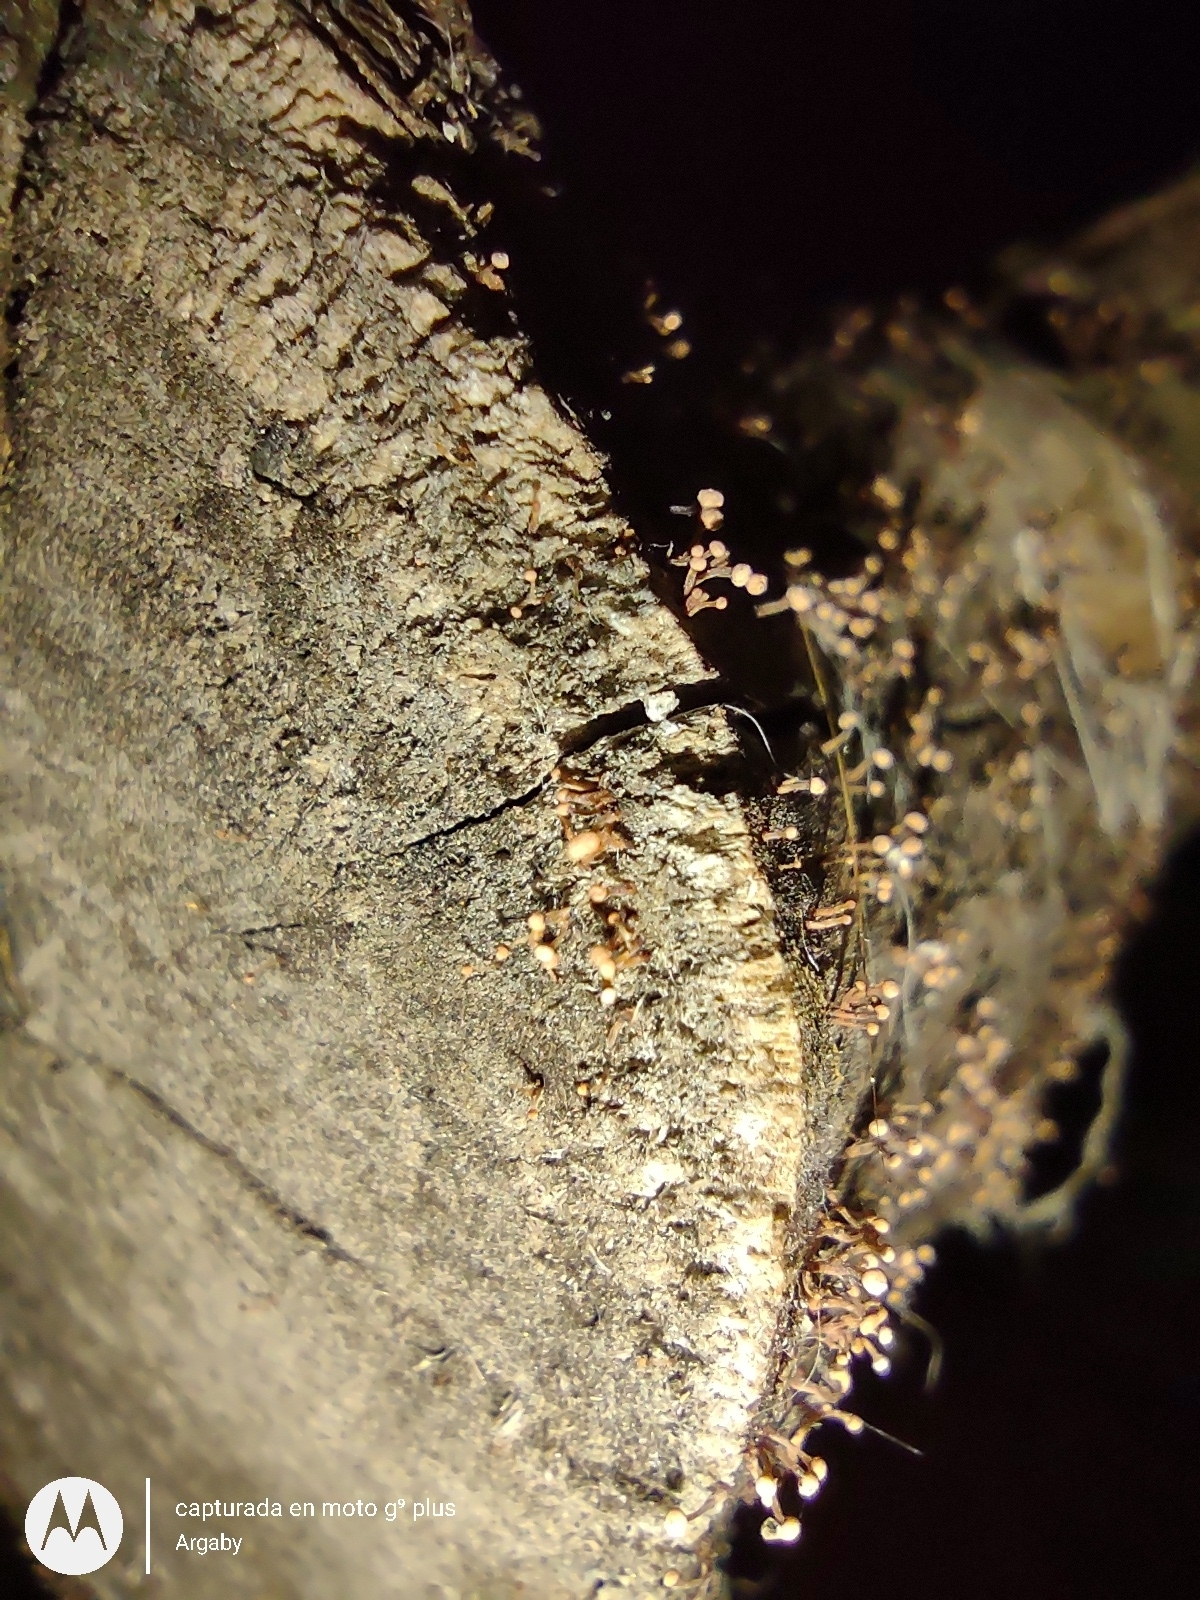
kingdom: Fungi
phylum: Ascomycota
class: Sordariomycetes
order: Hypocreales
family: Nectriaceae
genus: Nectria
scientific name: Nectria pseudotrichia
